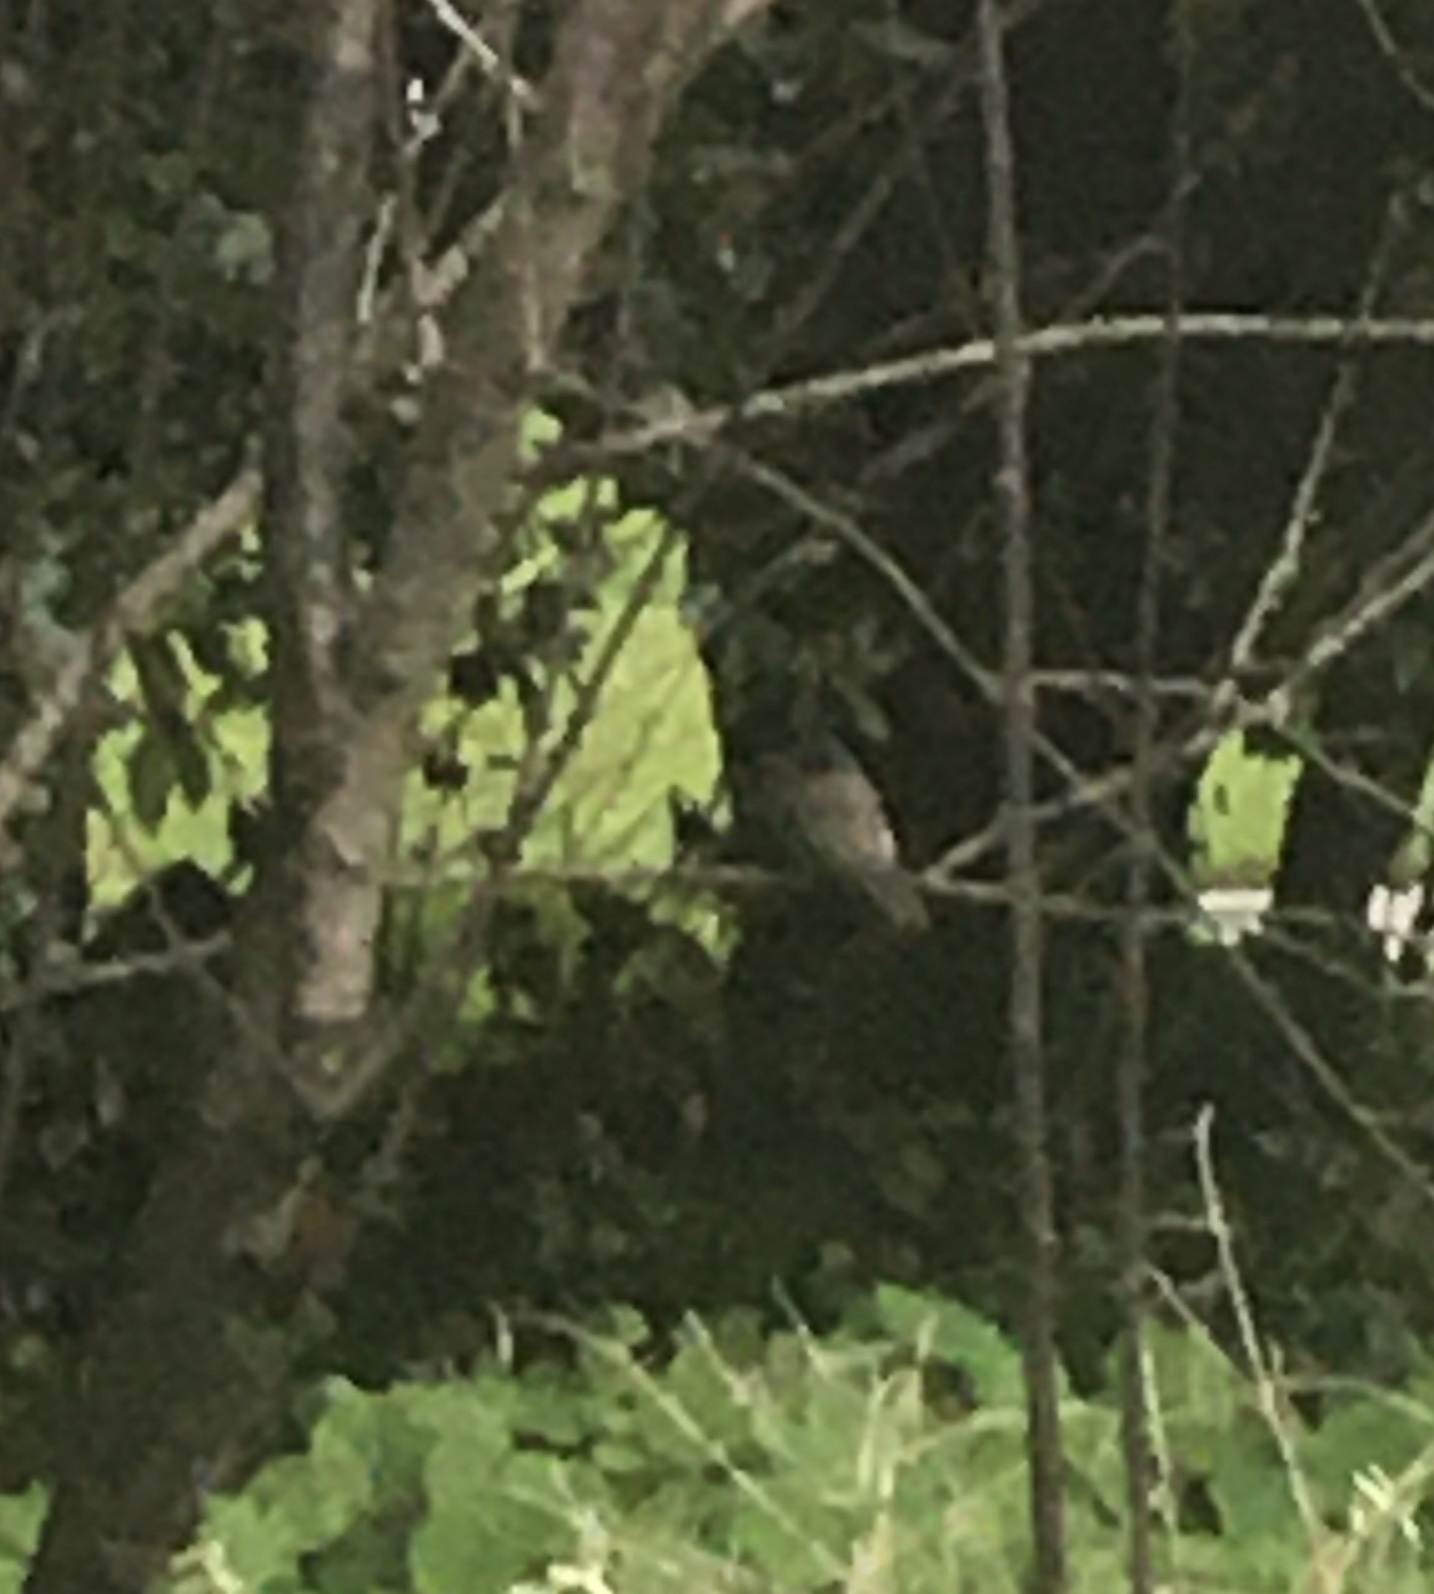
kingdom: Animalia
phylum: Chordata
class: Aves
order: Passeriformes
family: Tyrannidae
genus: Sayornis
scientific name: Sayornis nigricans
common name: Black phoebe
